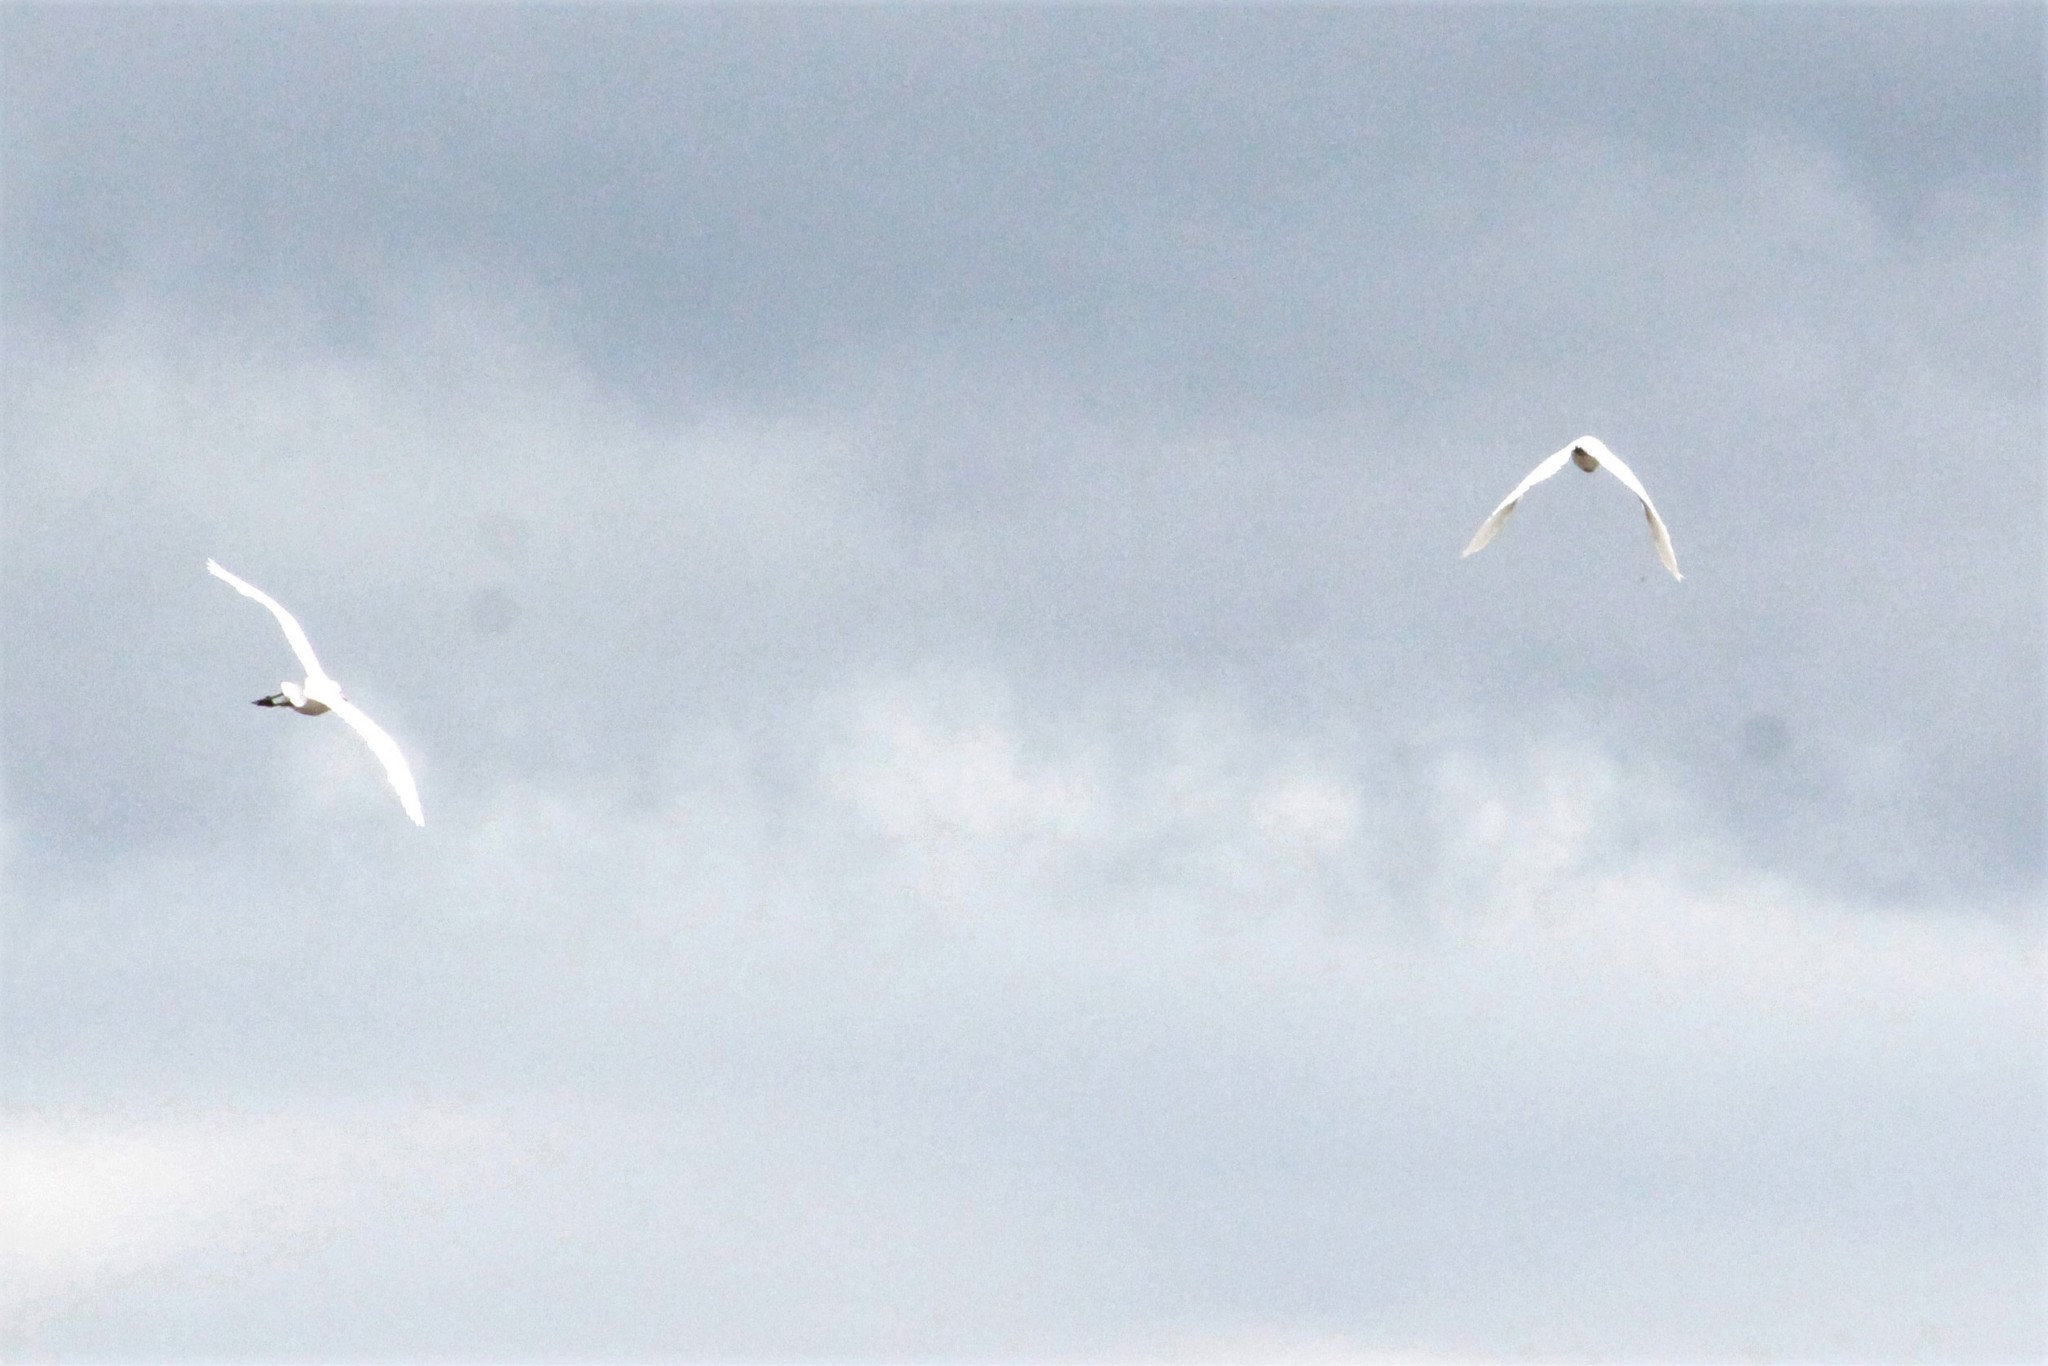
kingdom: Animalia
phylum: Chordata
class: Aves
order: Pelecaniformes
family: Ardeidae
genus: Bubulcus
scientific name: Bubulcus ibis
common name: Cattle egret
